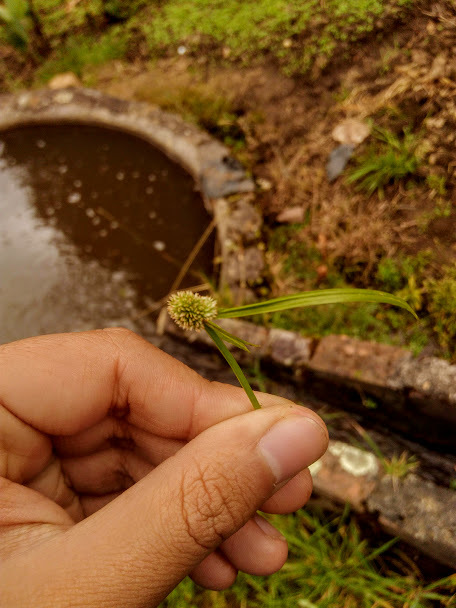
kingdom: Plantae
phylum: Tracheophyta
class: Liliopsida
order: Poales
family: Cyperaceae
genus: Cyperus
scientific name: Cyperus brevifolius
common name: Globe kyllinga
